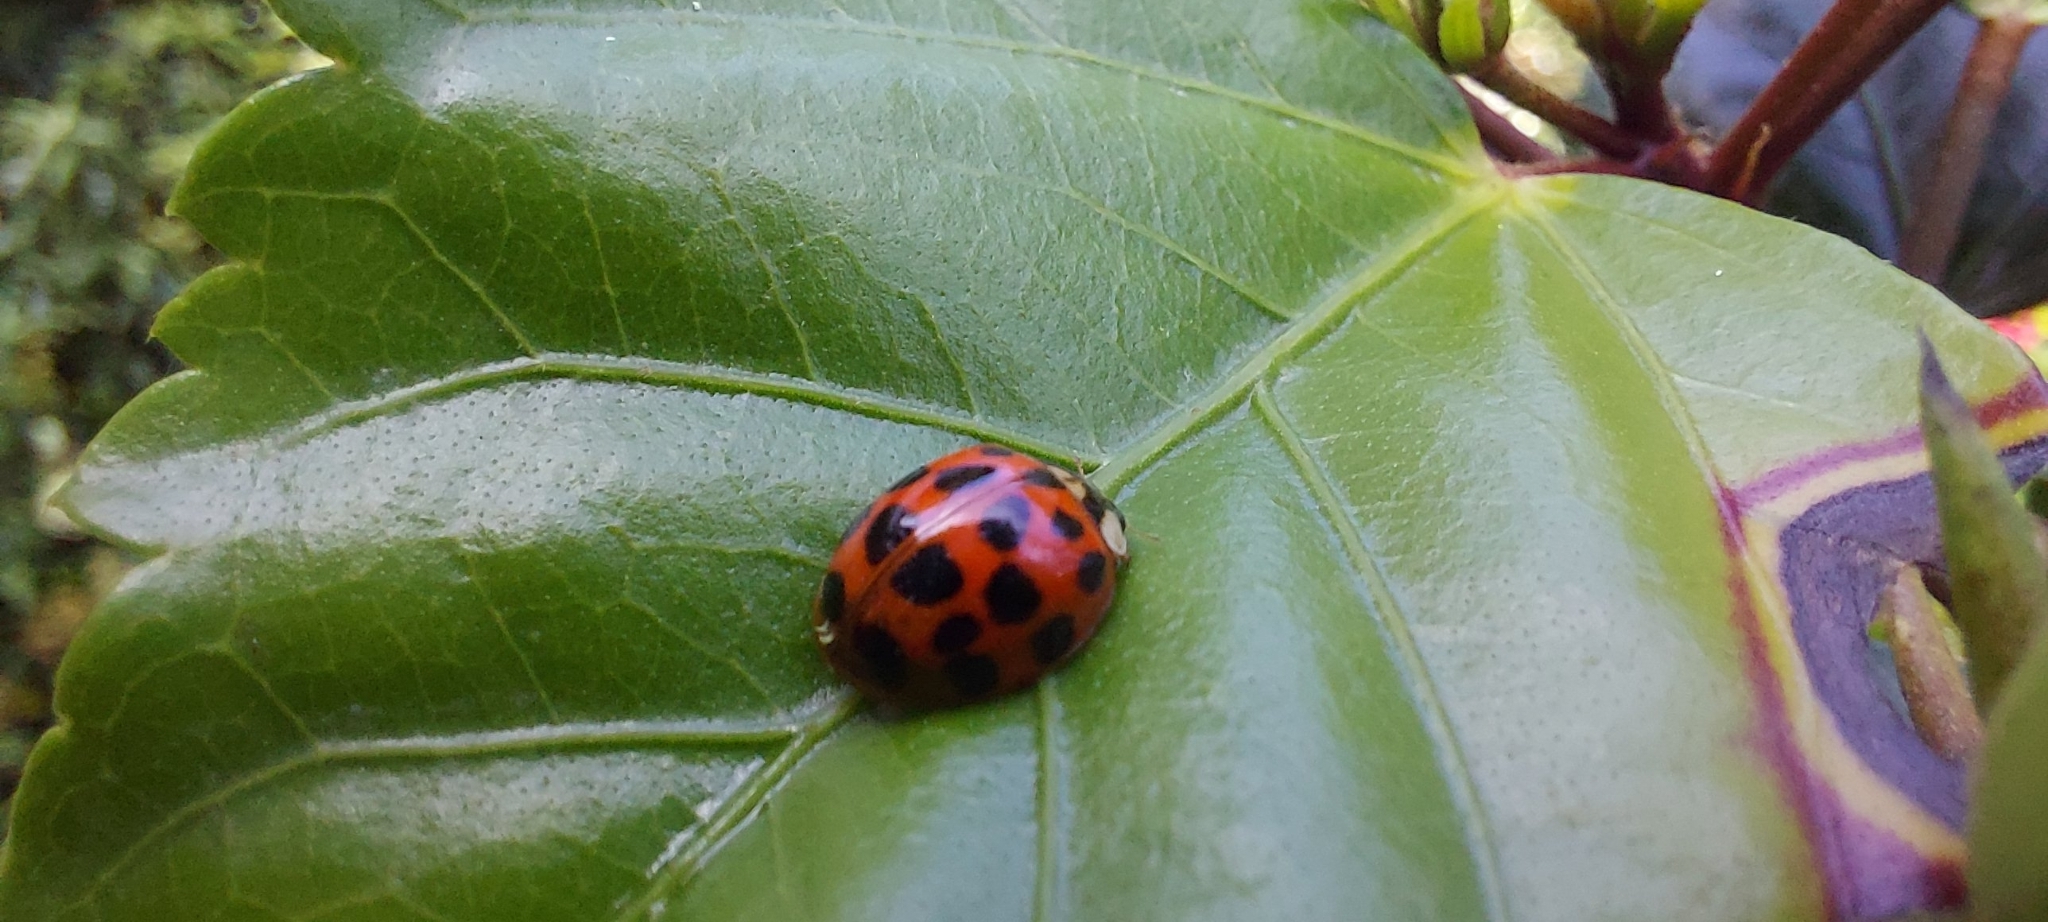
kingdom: Animalia
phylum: Arthropoda
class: Insecta
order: Coleoptera
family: Coccinellidae
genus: Harmonia
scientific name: Harmonia axyridis
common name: Harlequin ladybird
